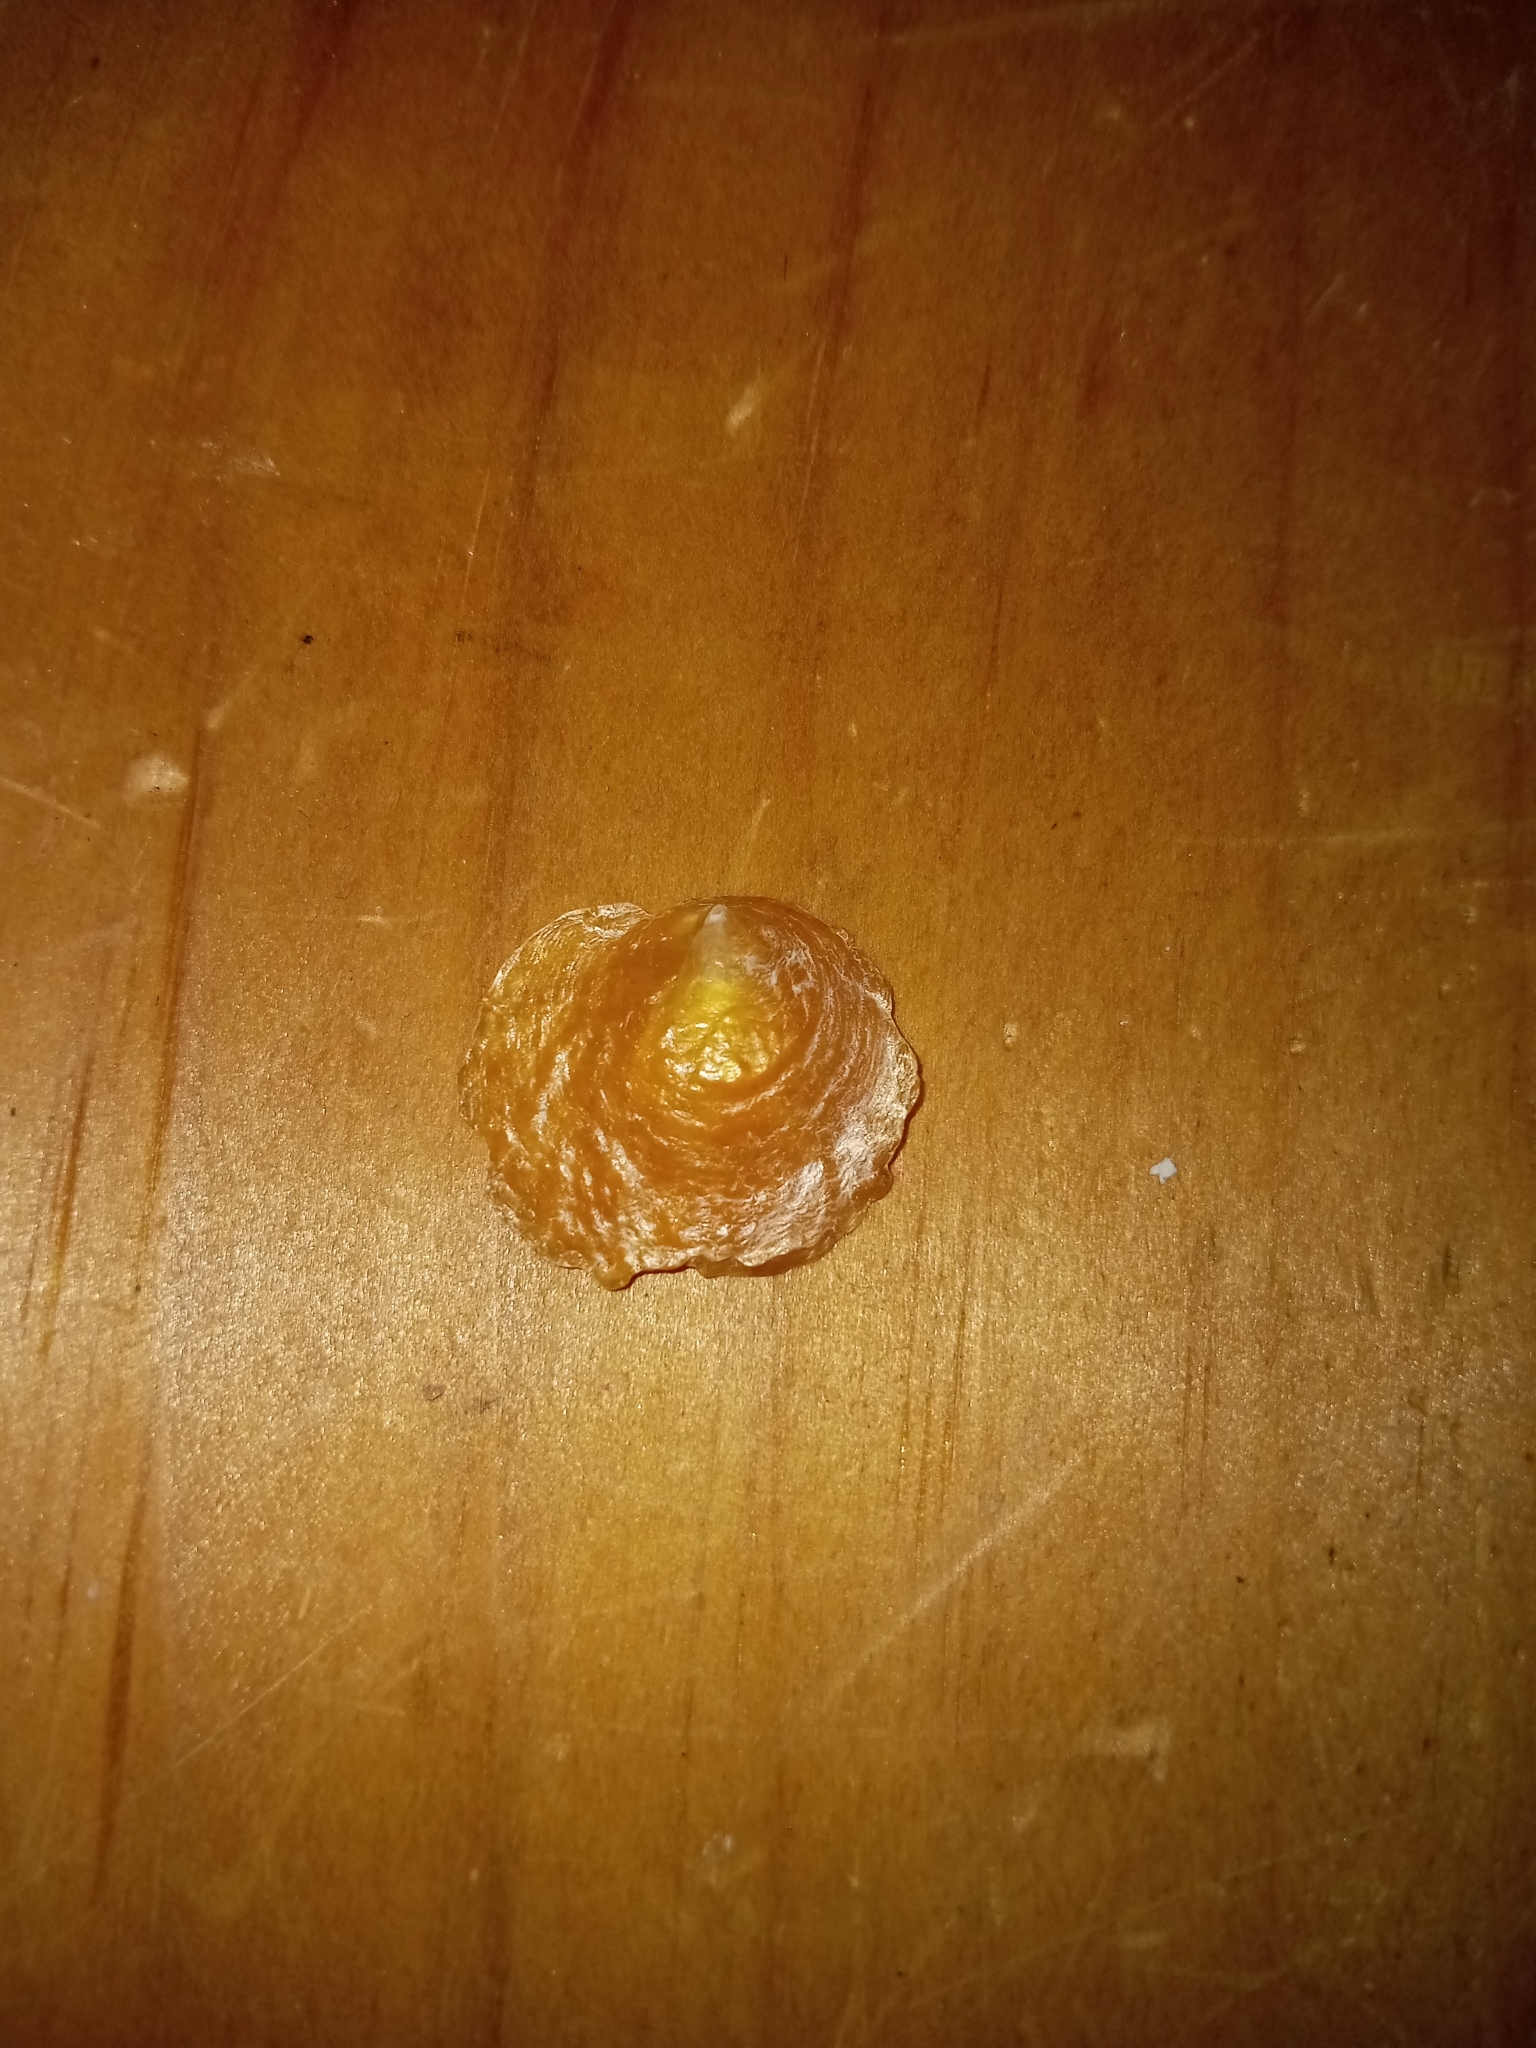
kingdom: Animalia
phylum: Mollusca
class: Bivalvia
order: Pectinida
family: Anomiidae
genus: Anomia
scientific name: Anomia simplex
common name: Common jingle shell
